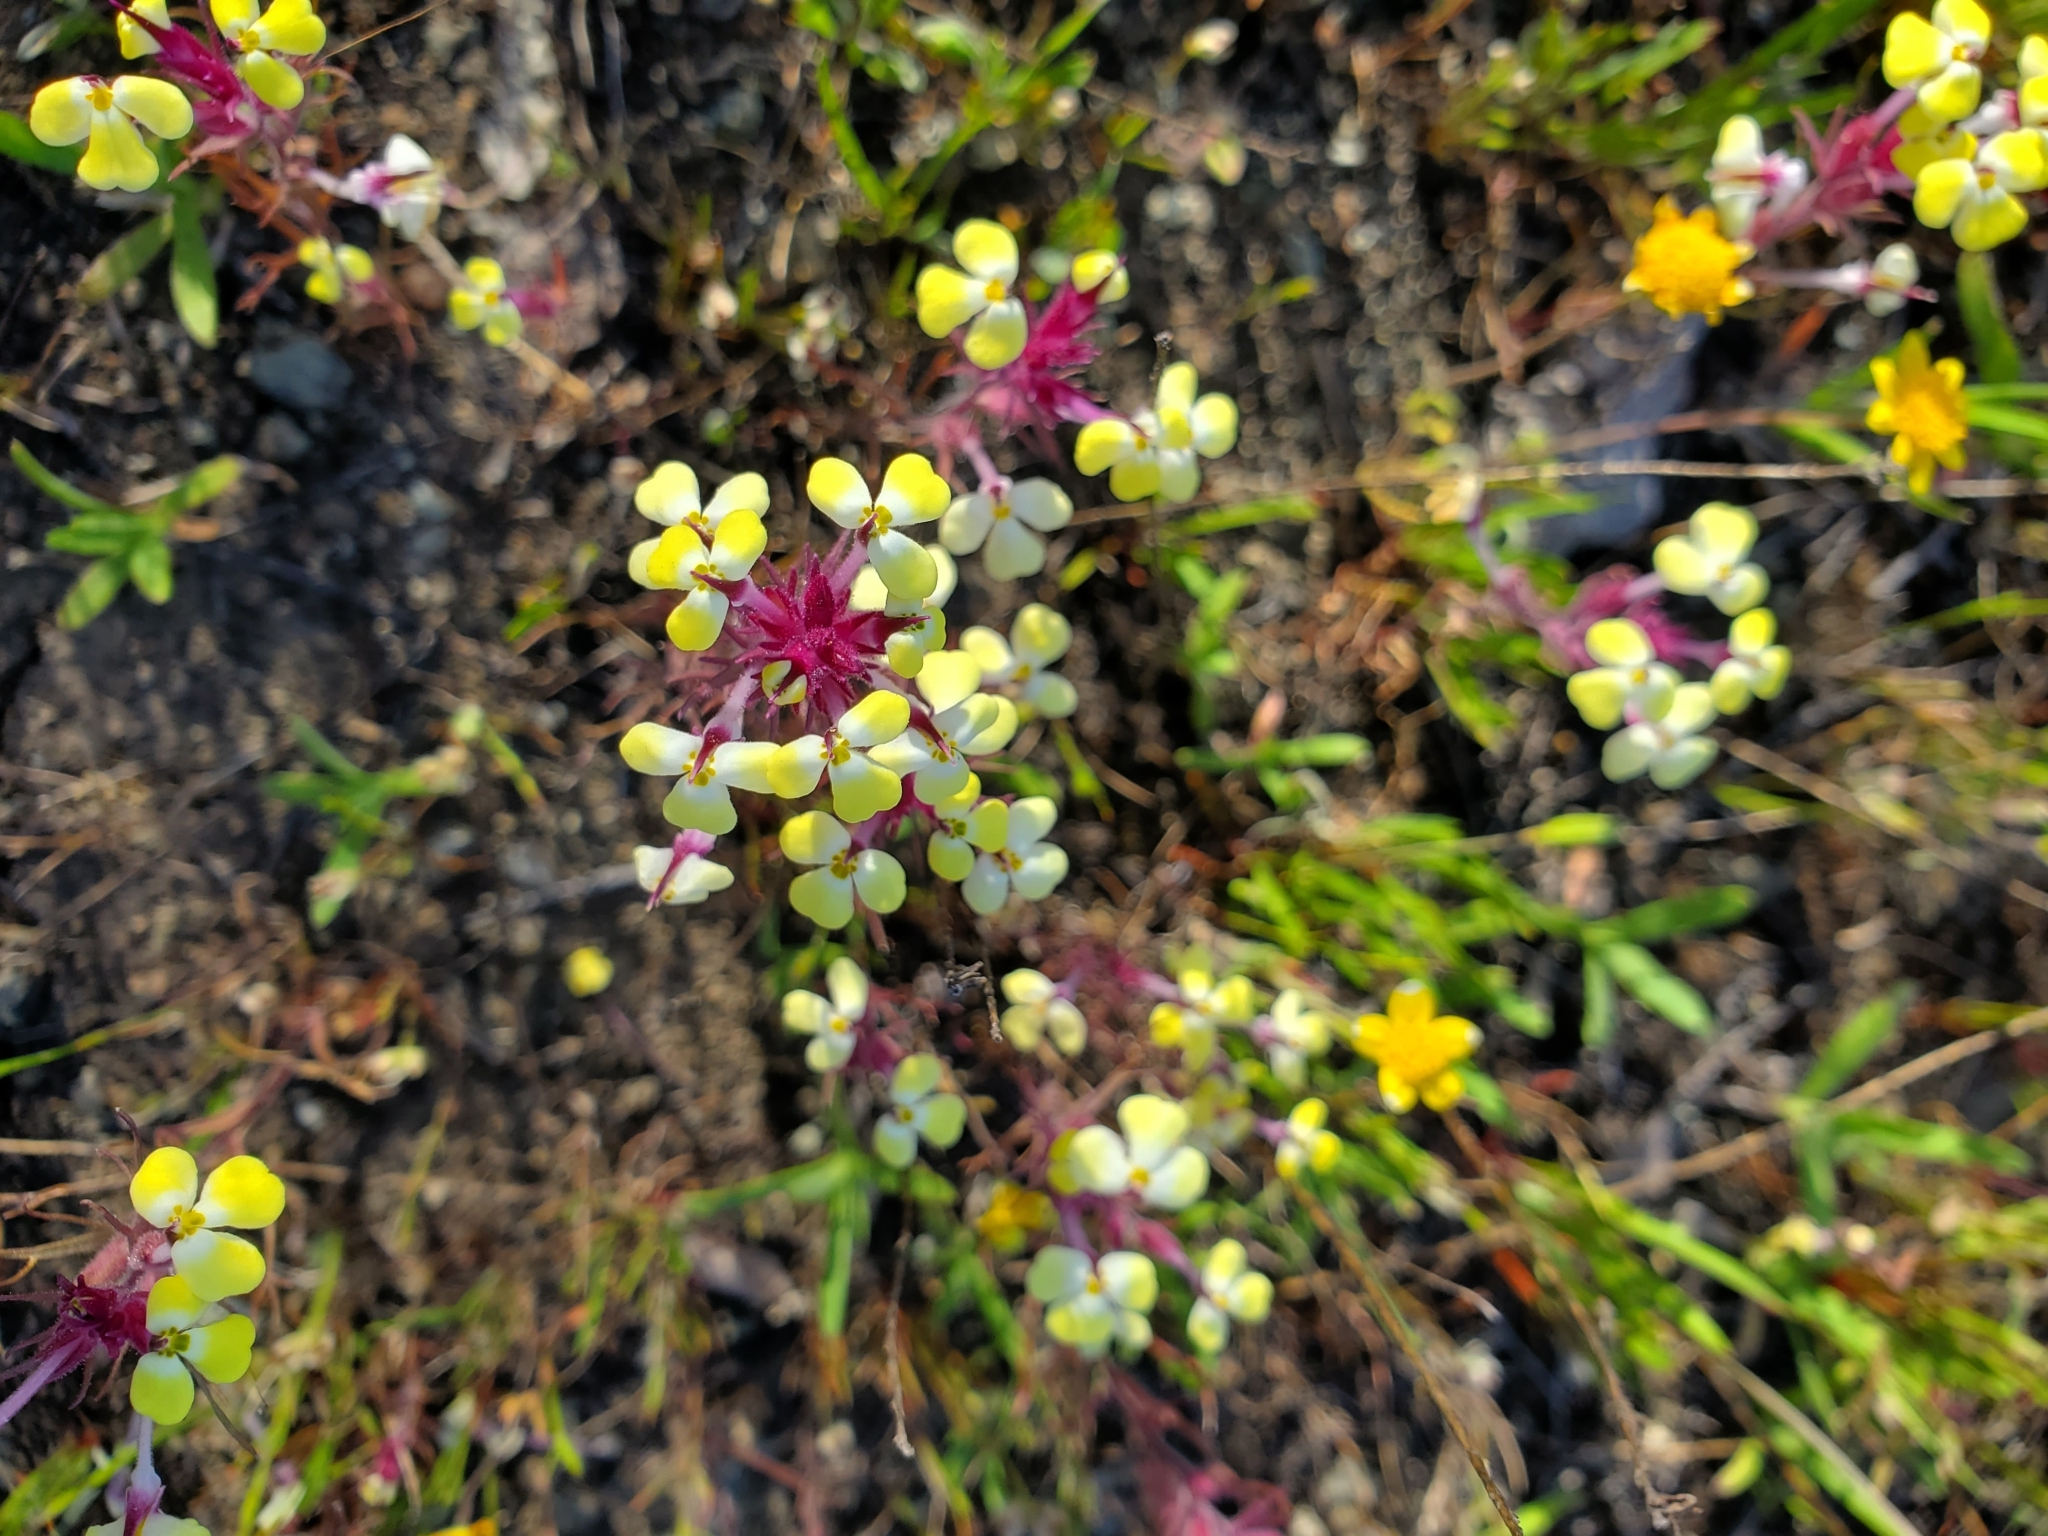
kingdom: Plantae
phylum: Tracheophyta
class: Magnoliopsida
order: Lamiales
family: Orobanchaceae
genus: Triphysaria
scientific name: Triphysaria eriantha
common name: Johnny-tuck
